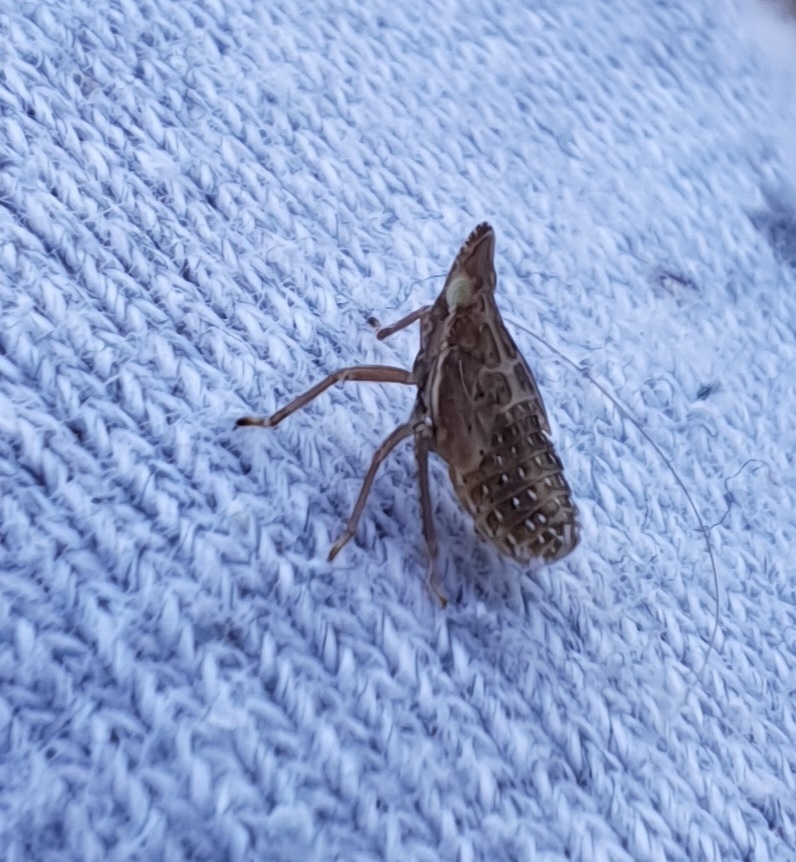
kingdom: Animalia
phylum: Arthropoda
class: Insecta
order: Hemiptera
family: Dictyopharidae
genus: Dictyophara
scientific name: Dictyophara europaea
